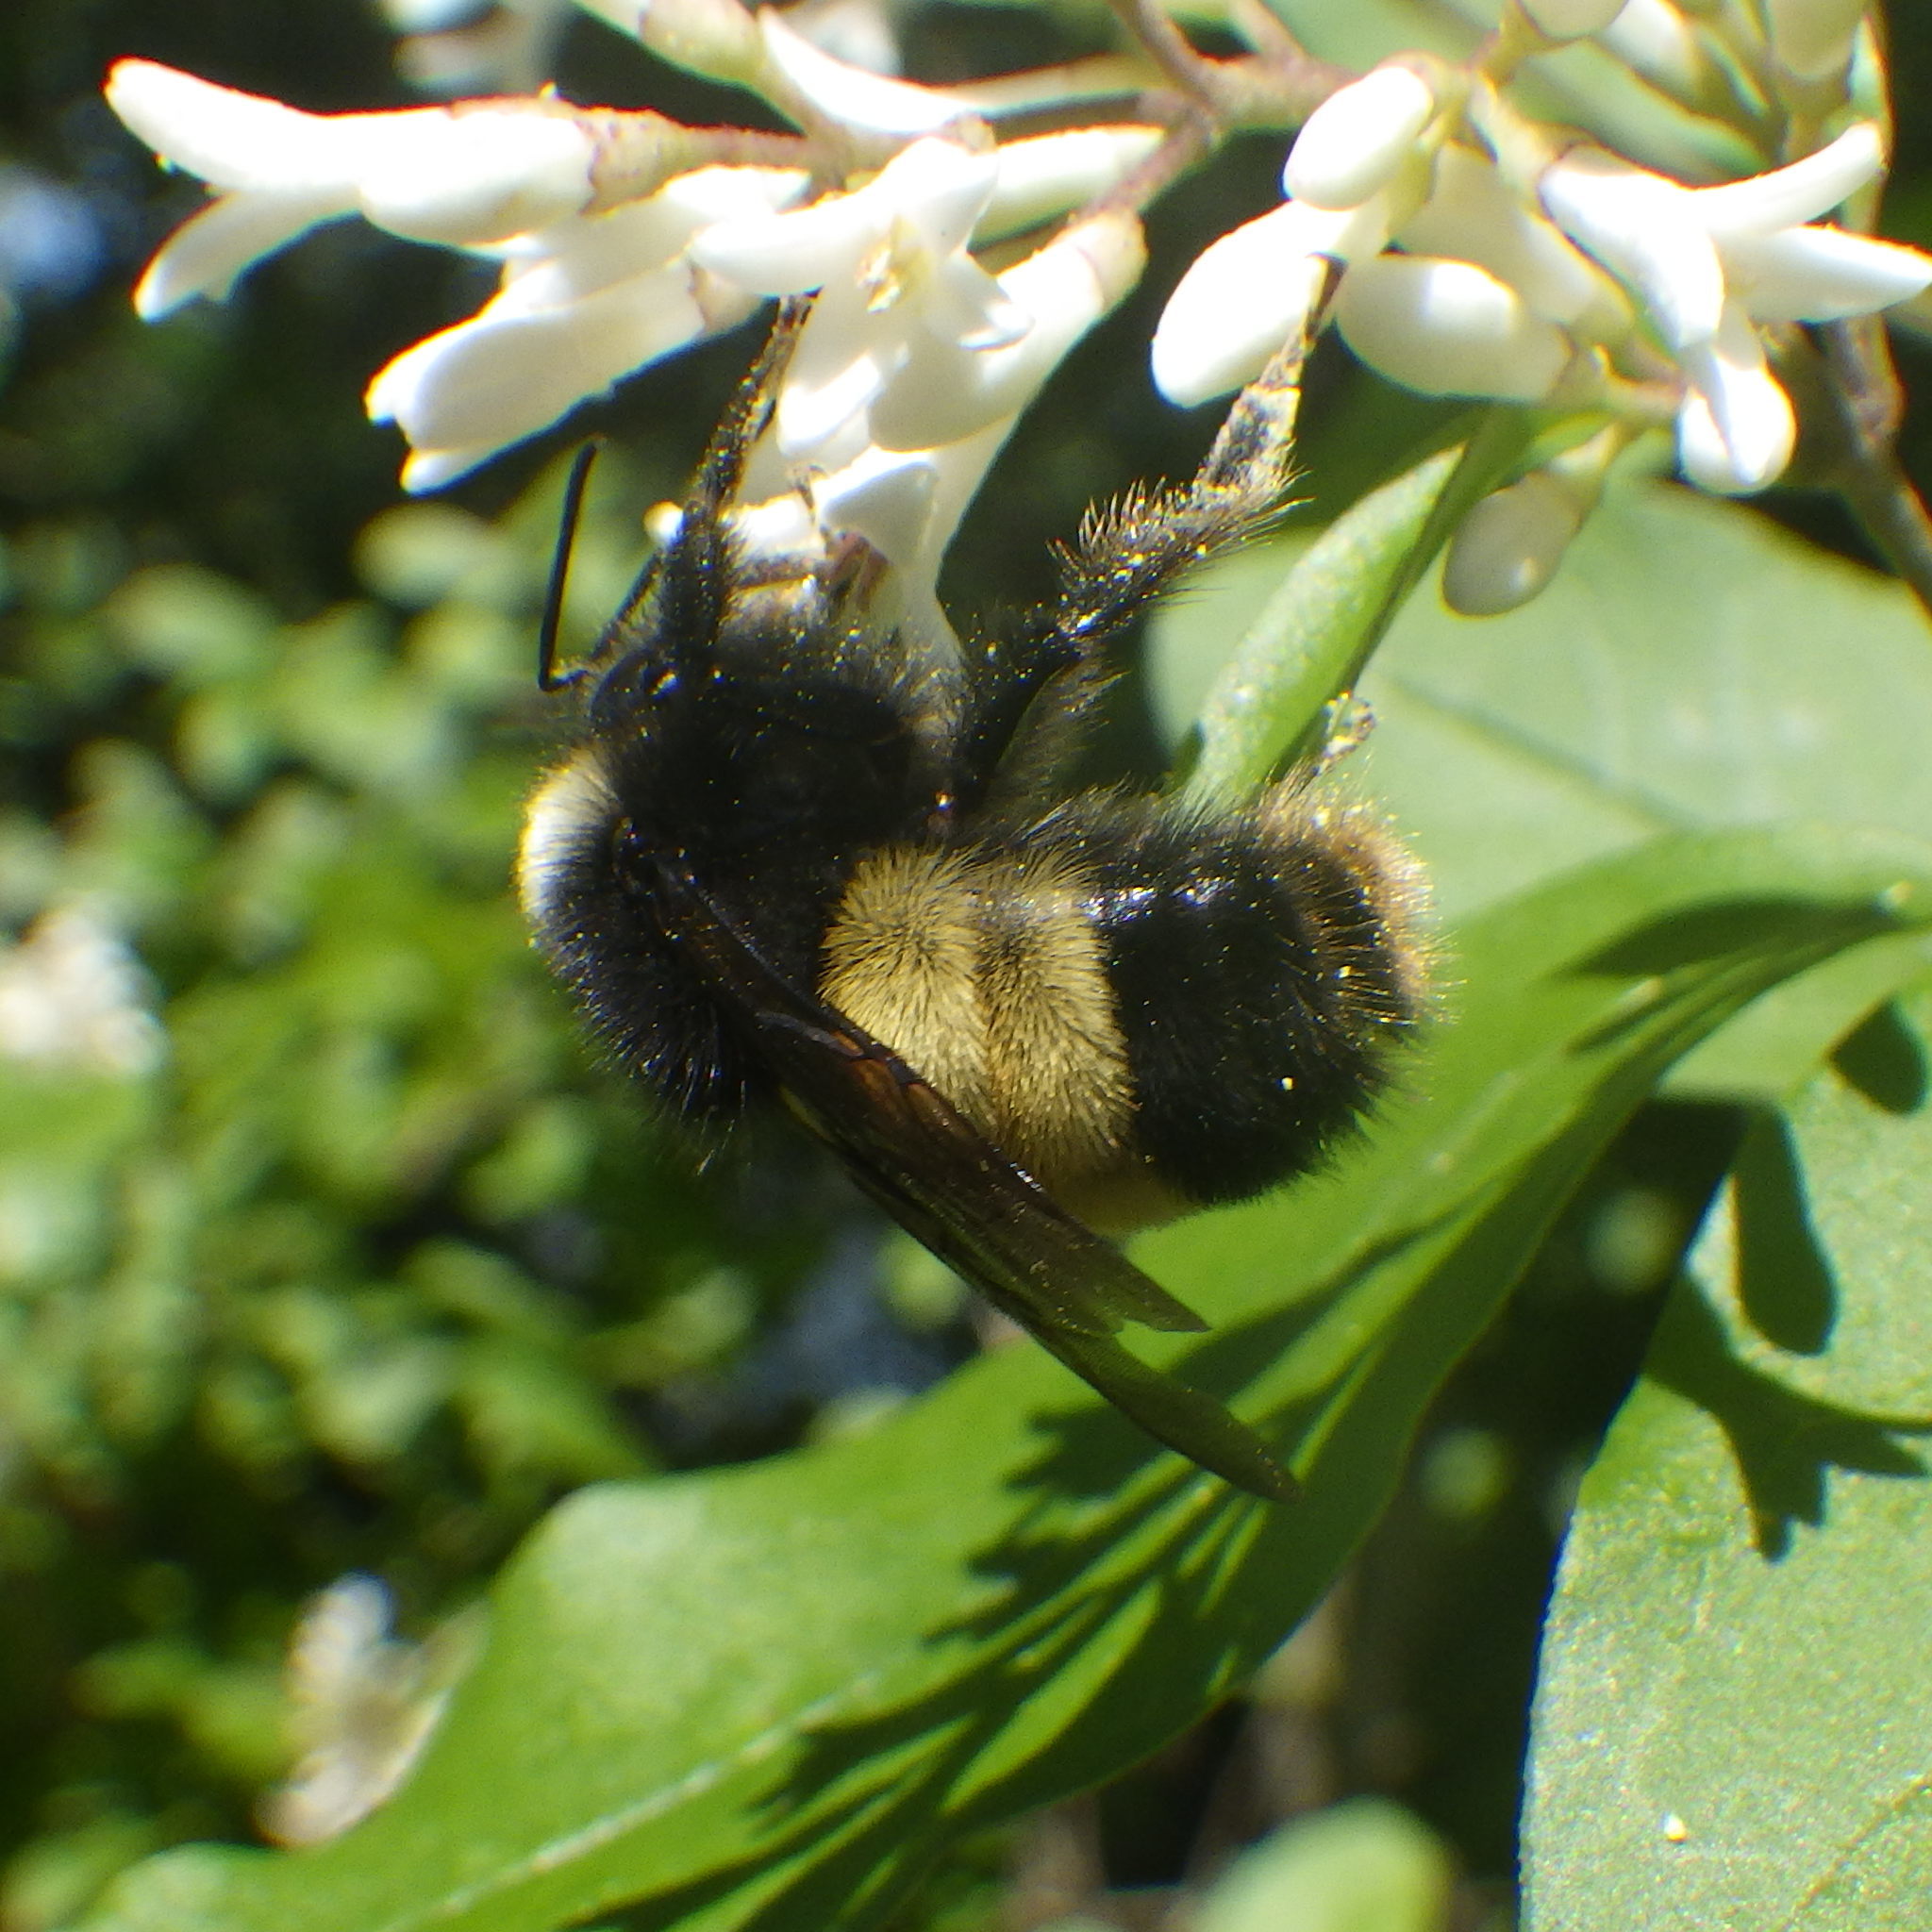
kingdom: Animalia
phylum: Arthropoda
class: Insecta
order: Hymenoptera
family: Apidae
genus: Bombus
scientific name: Bombus terricola
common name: Yellow-banded bumble bee
